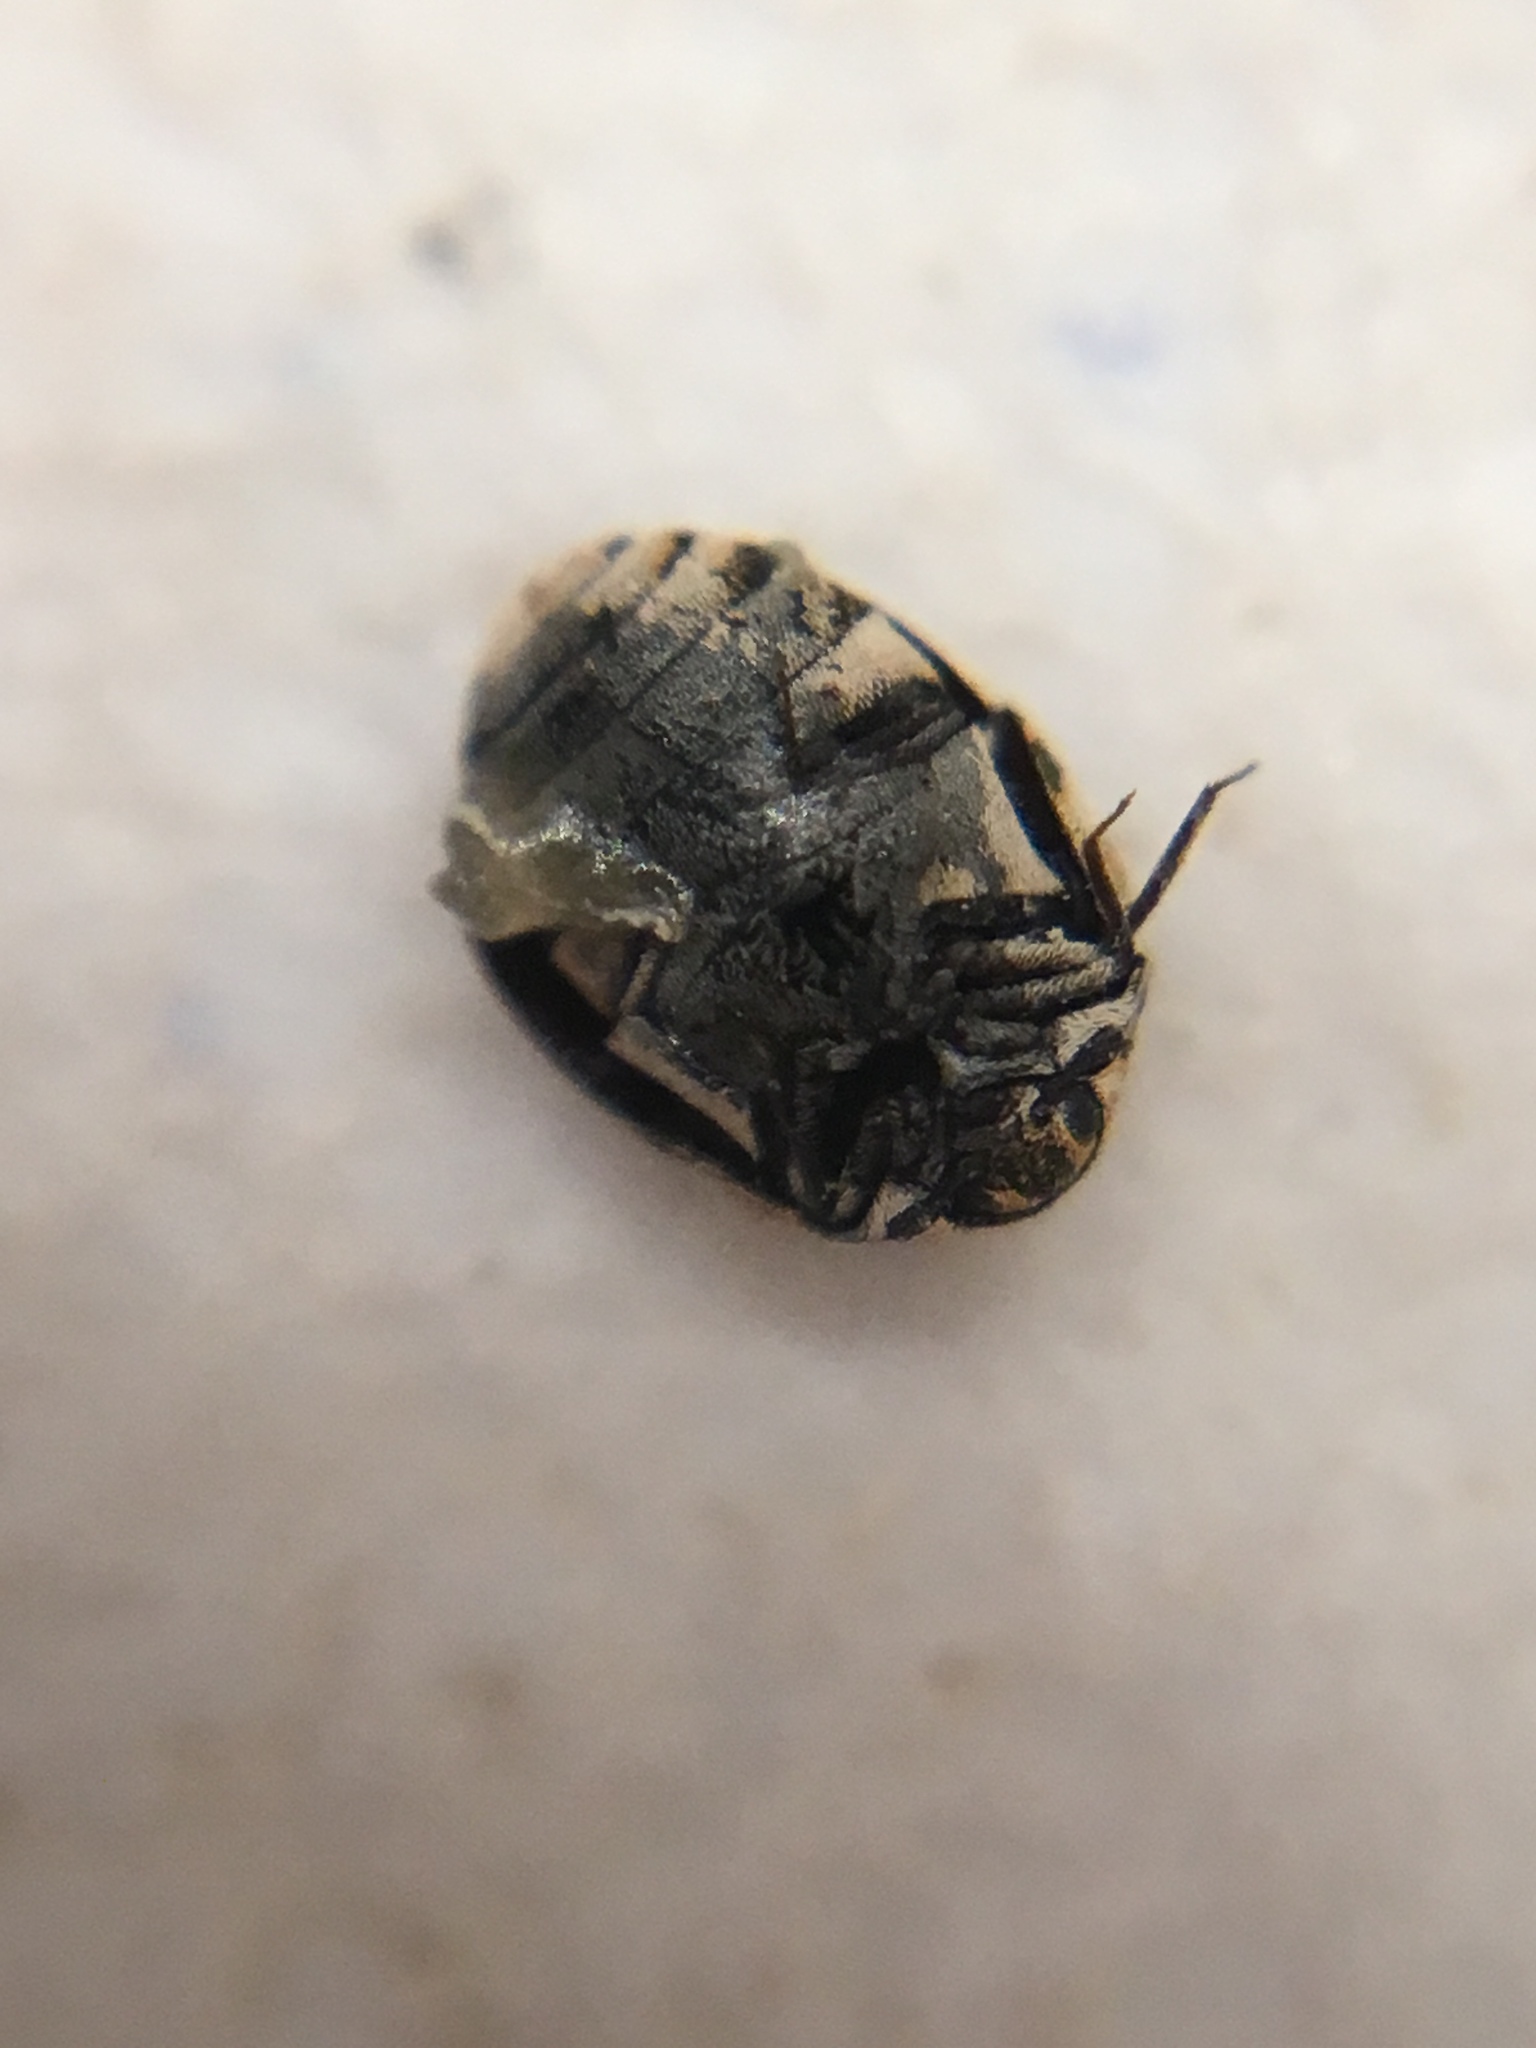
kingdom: Animalia
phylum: Arthropoda
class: Insecta
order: Coleoptera
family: Dermestidae
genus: Anthrenus
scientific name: Anthrenus verbasci
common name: Varied carpet beetle
